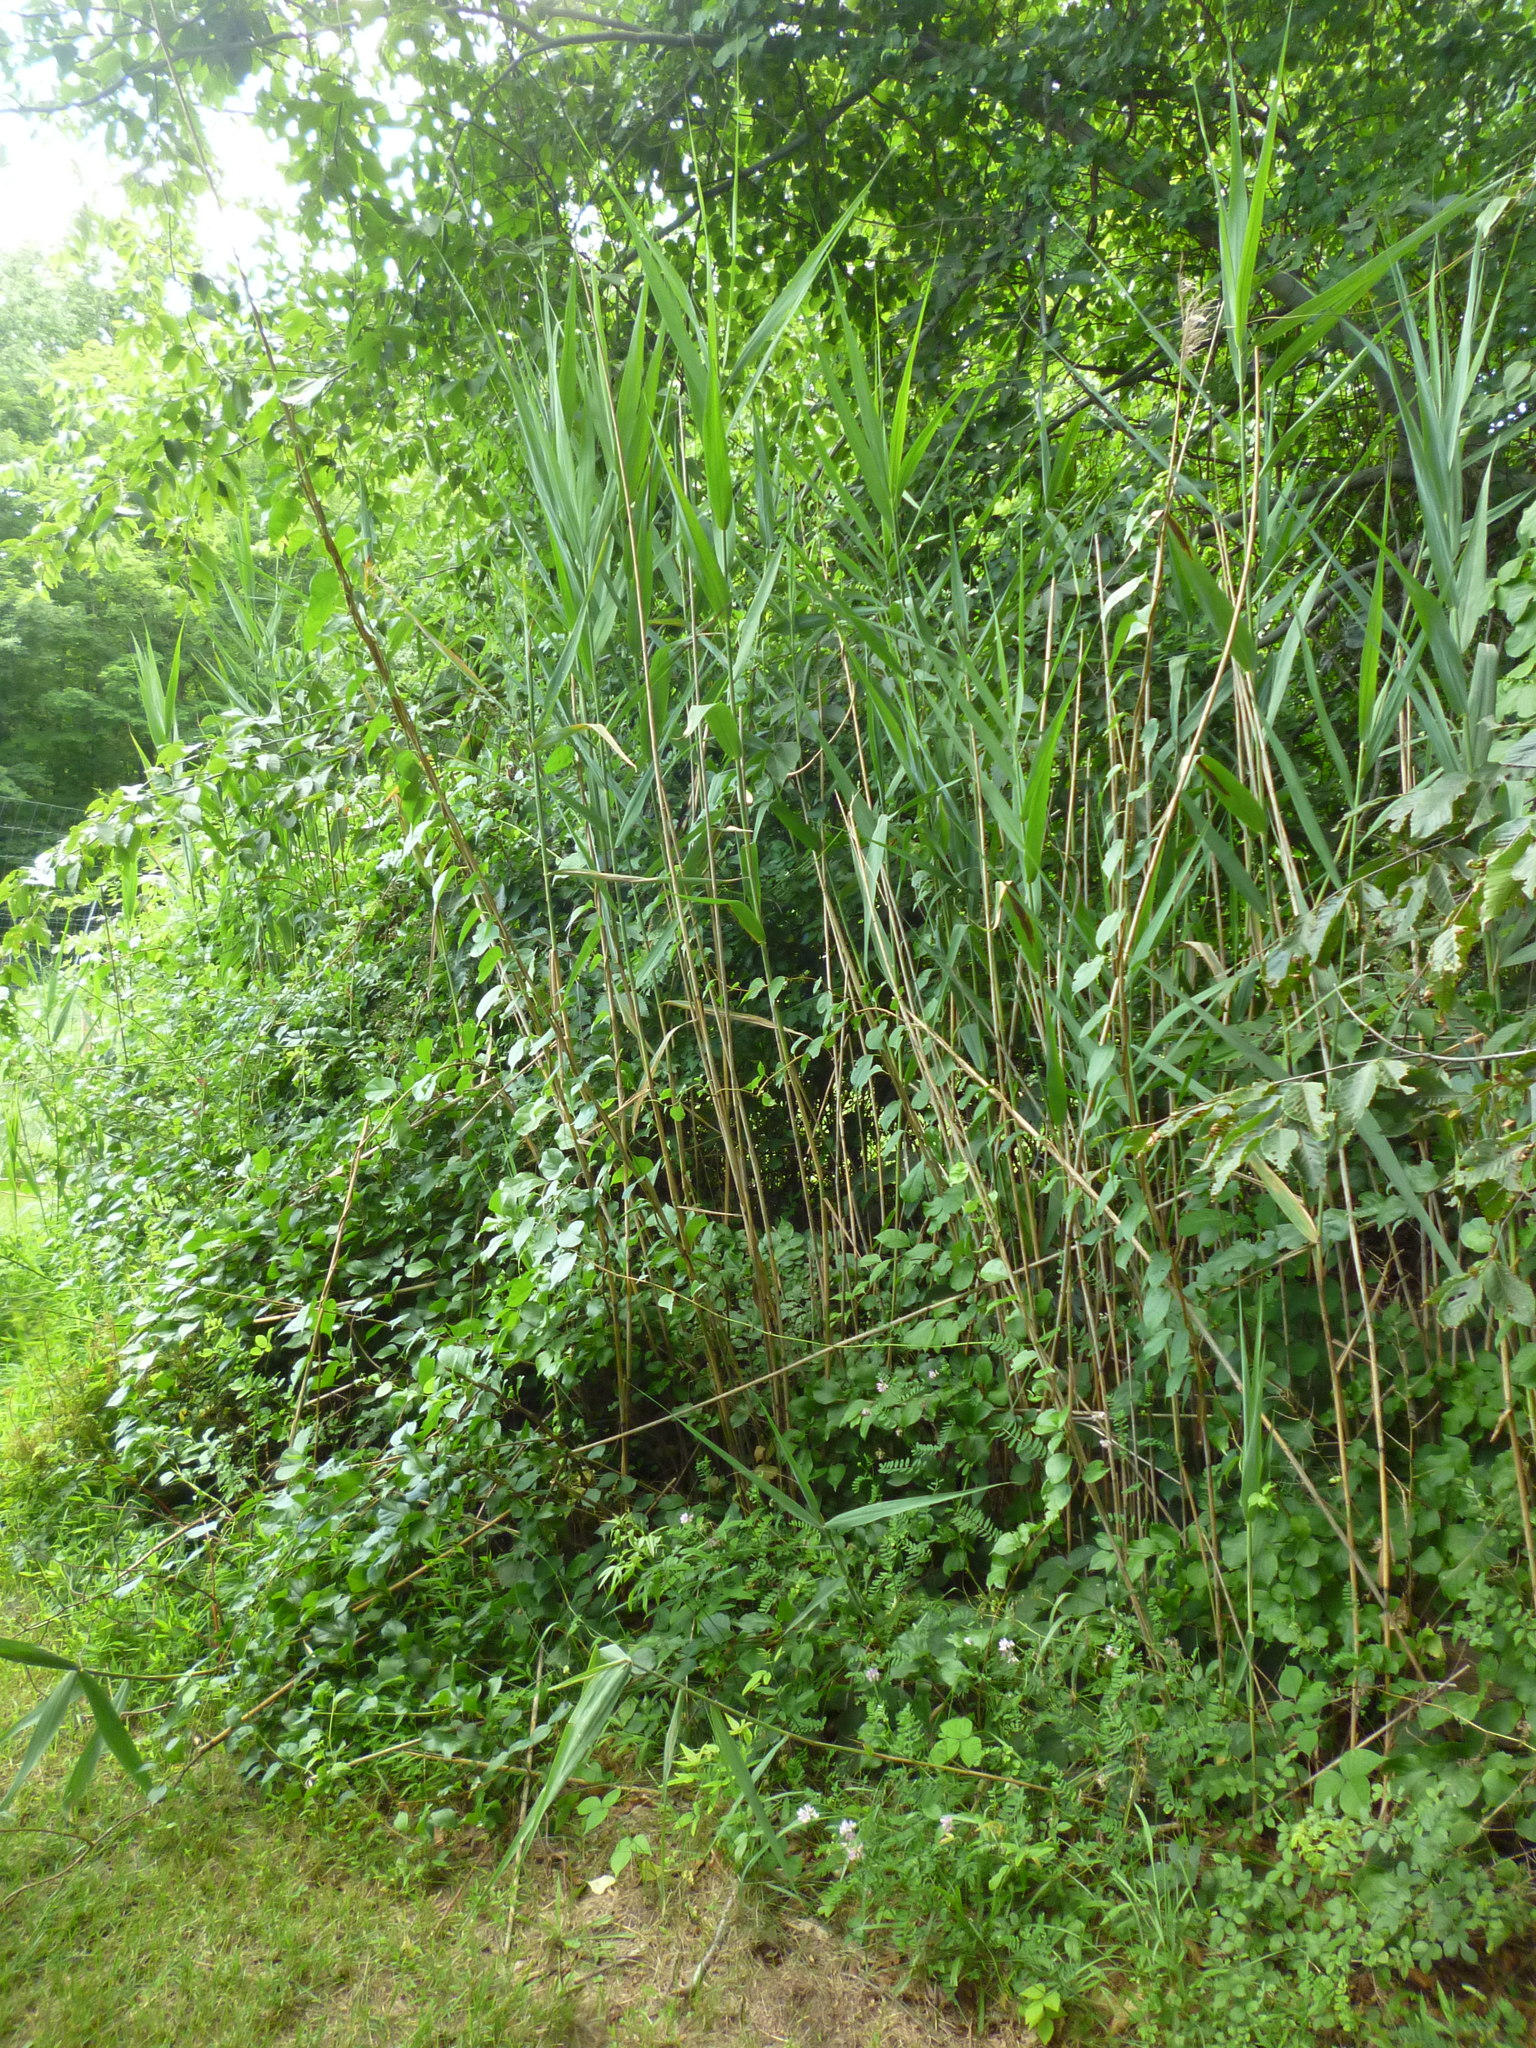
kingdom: Plantae
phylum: Tracheophyta
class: Liliopsida
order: Poales
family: Poaceae
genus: Phragmites
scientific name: Phragmites australis
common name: Common reed
